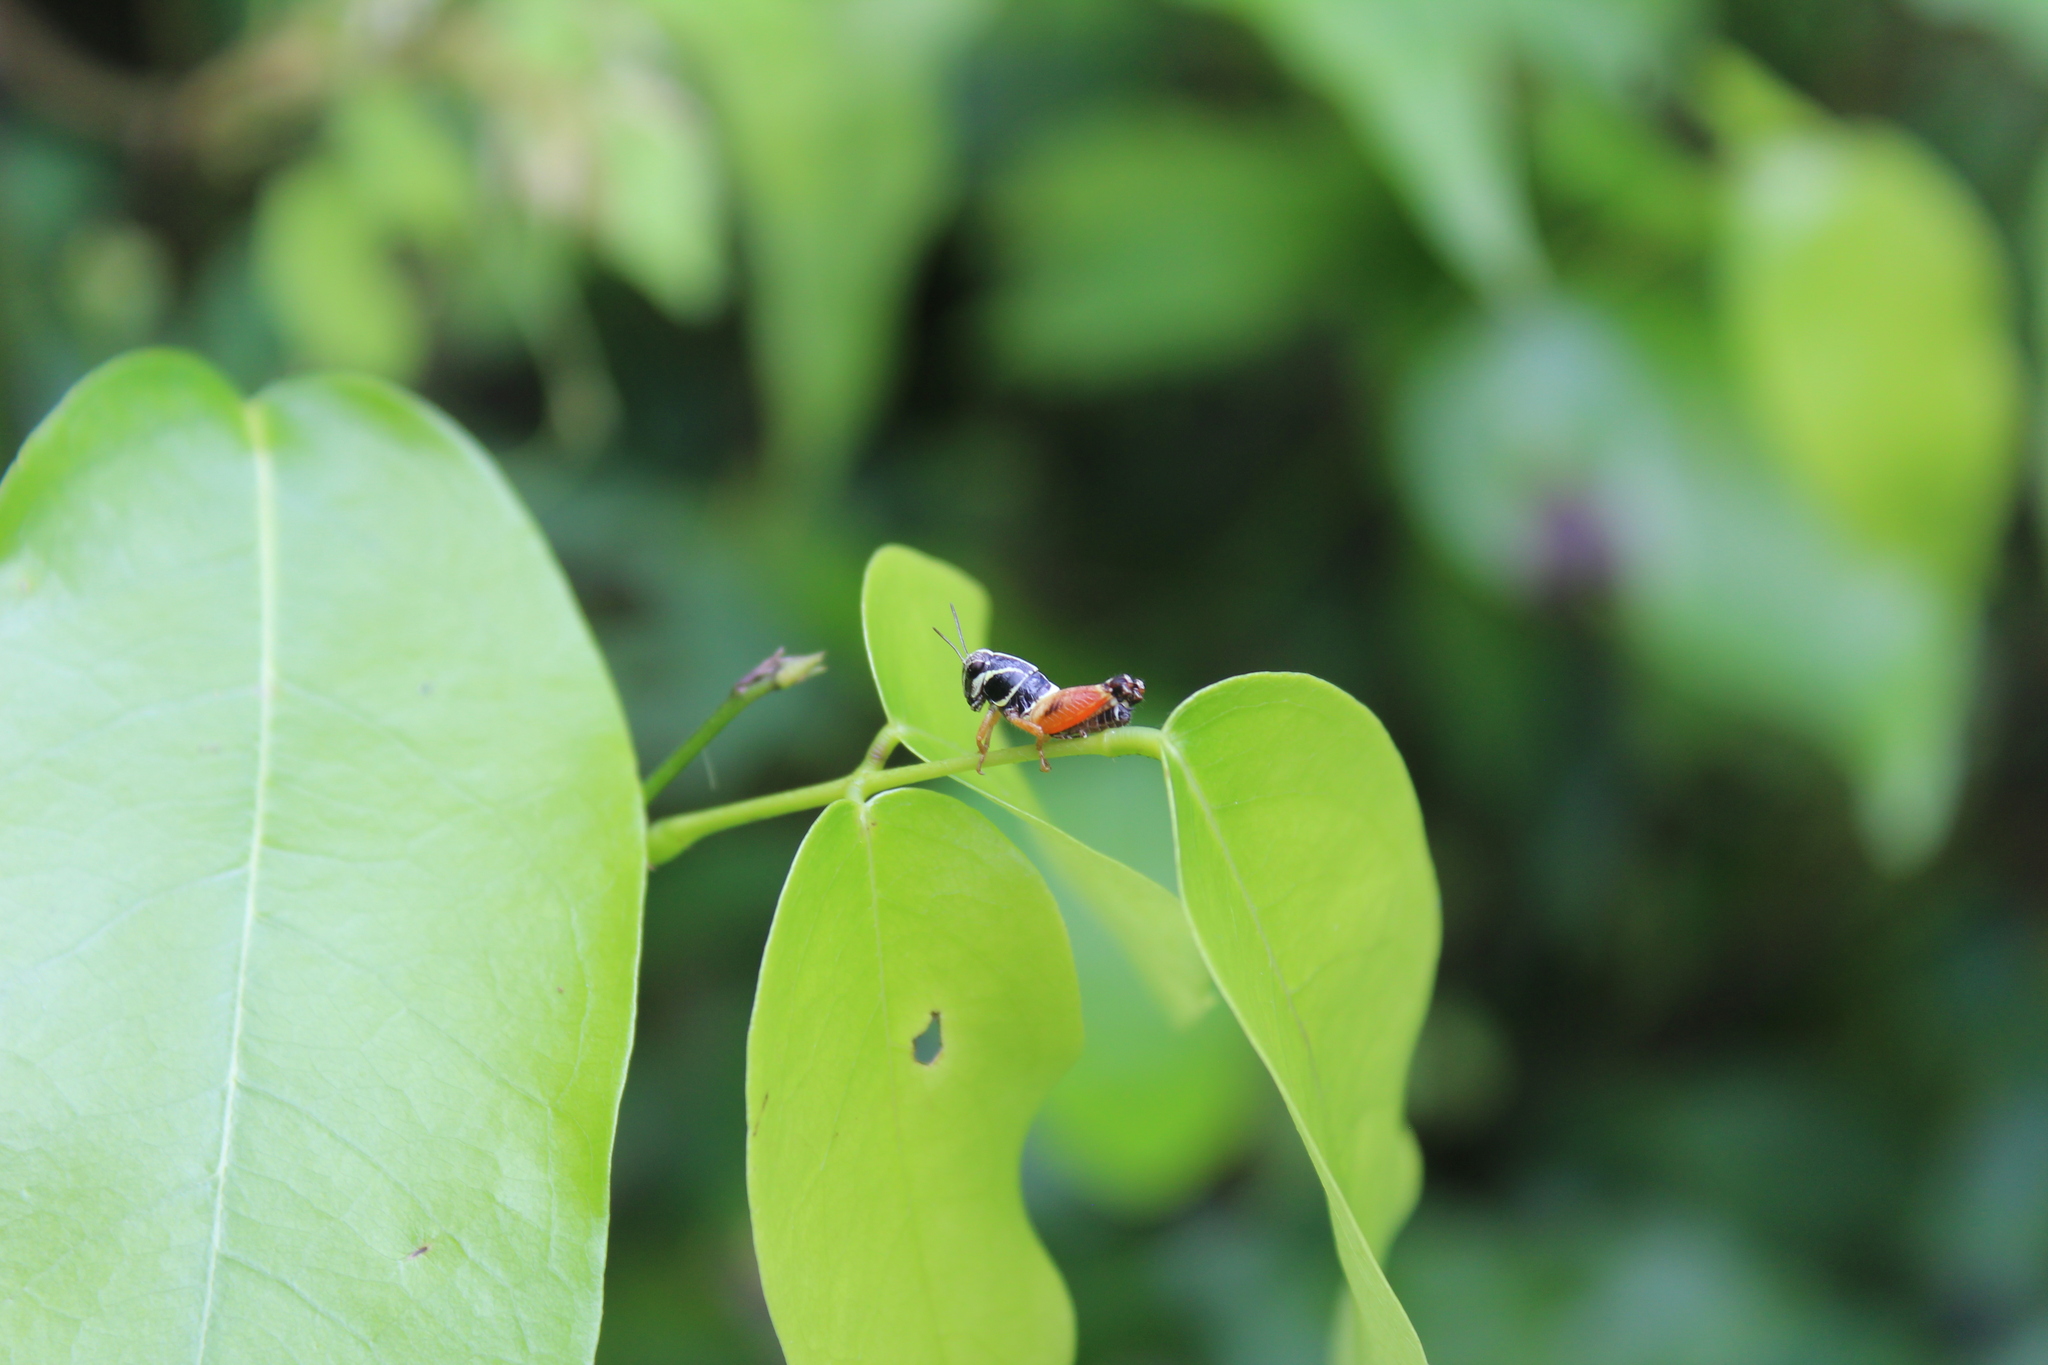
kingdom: Animalia
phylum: Arthropoda
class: Insecta
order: Orthoptera
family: Acrididae
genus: Aidemona
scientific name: Aidemona azteca
